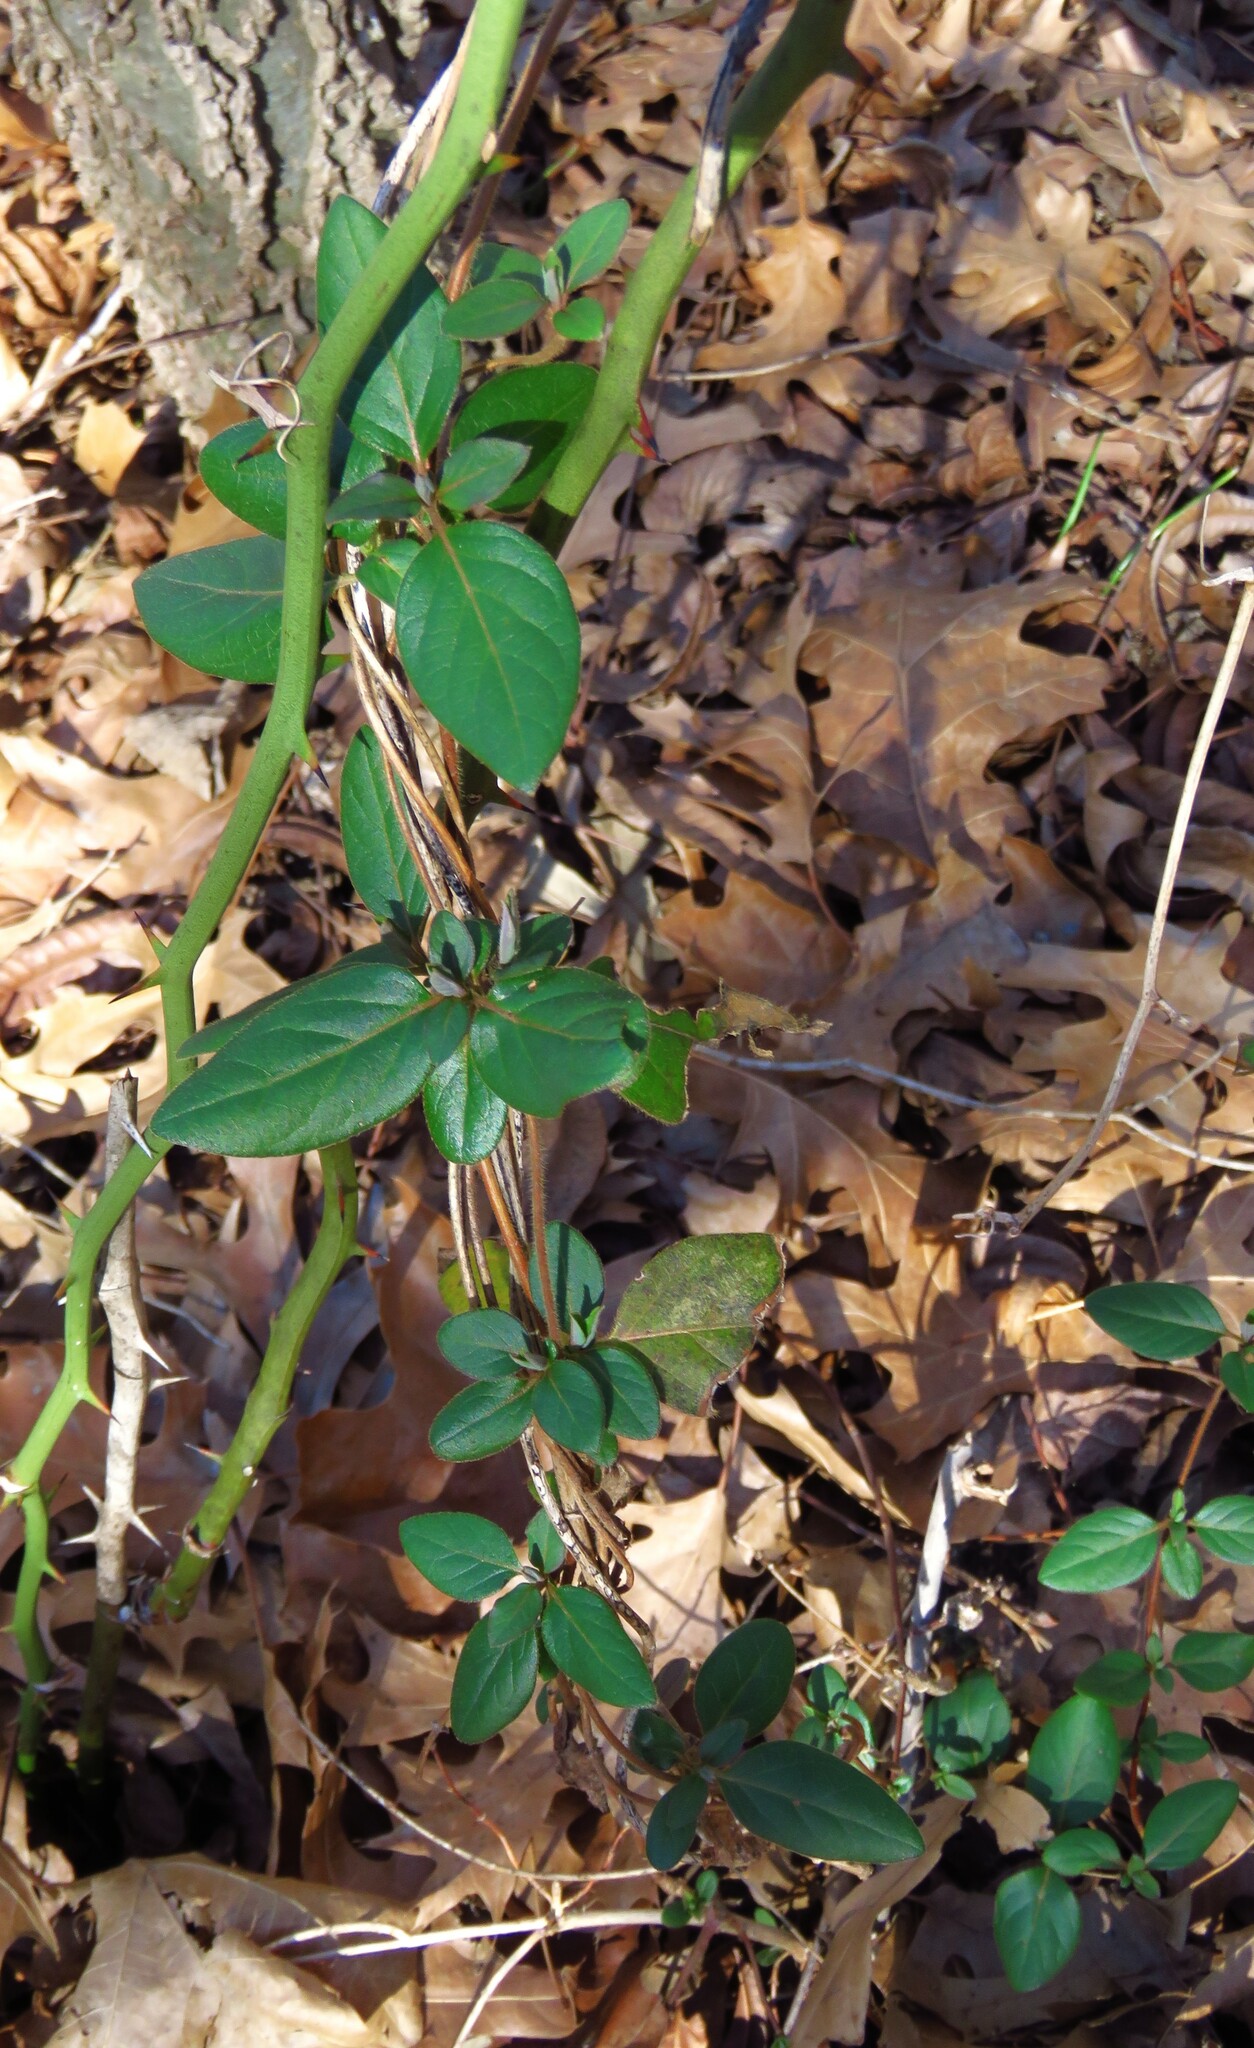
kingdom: Plantae
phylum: Tracheophyta
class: Magnoliopsida
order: Dipsacales
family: Caprifoliaceae
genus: Lonicera
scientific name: Lonicera japonica
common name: Japanese honeysuckle
